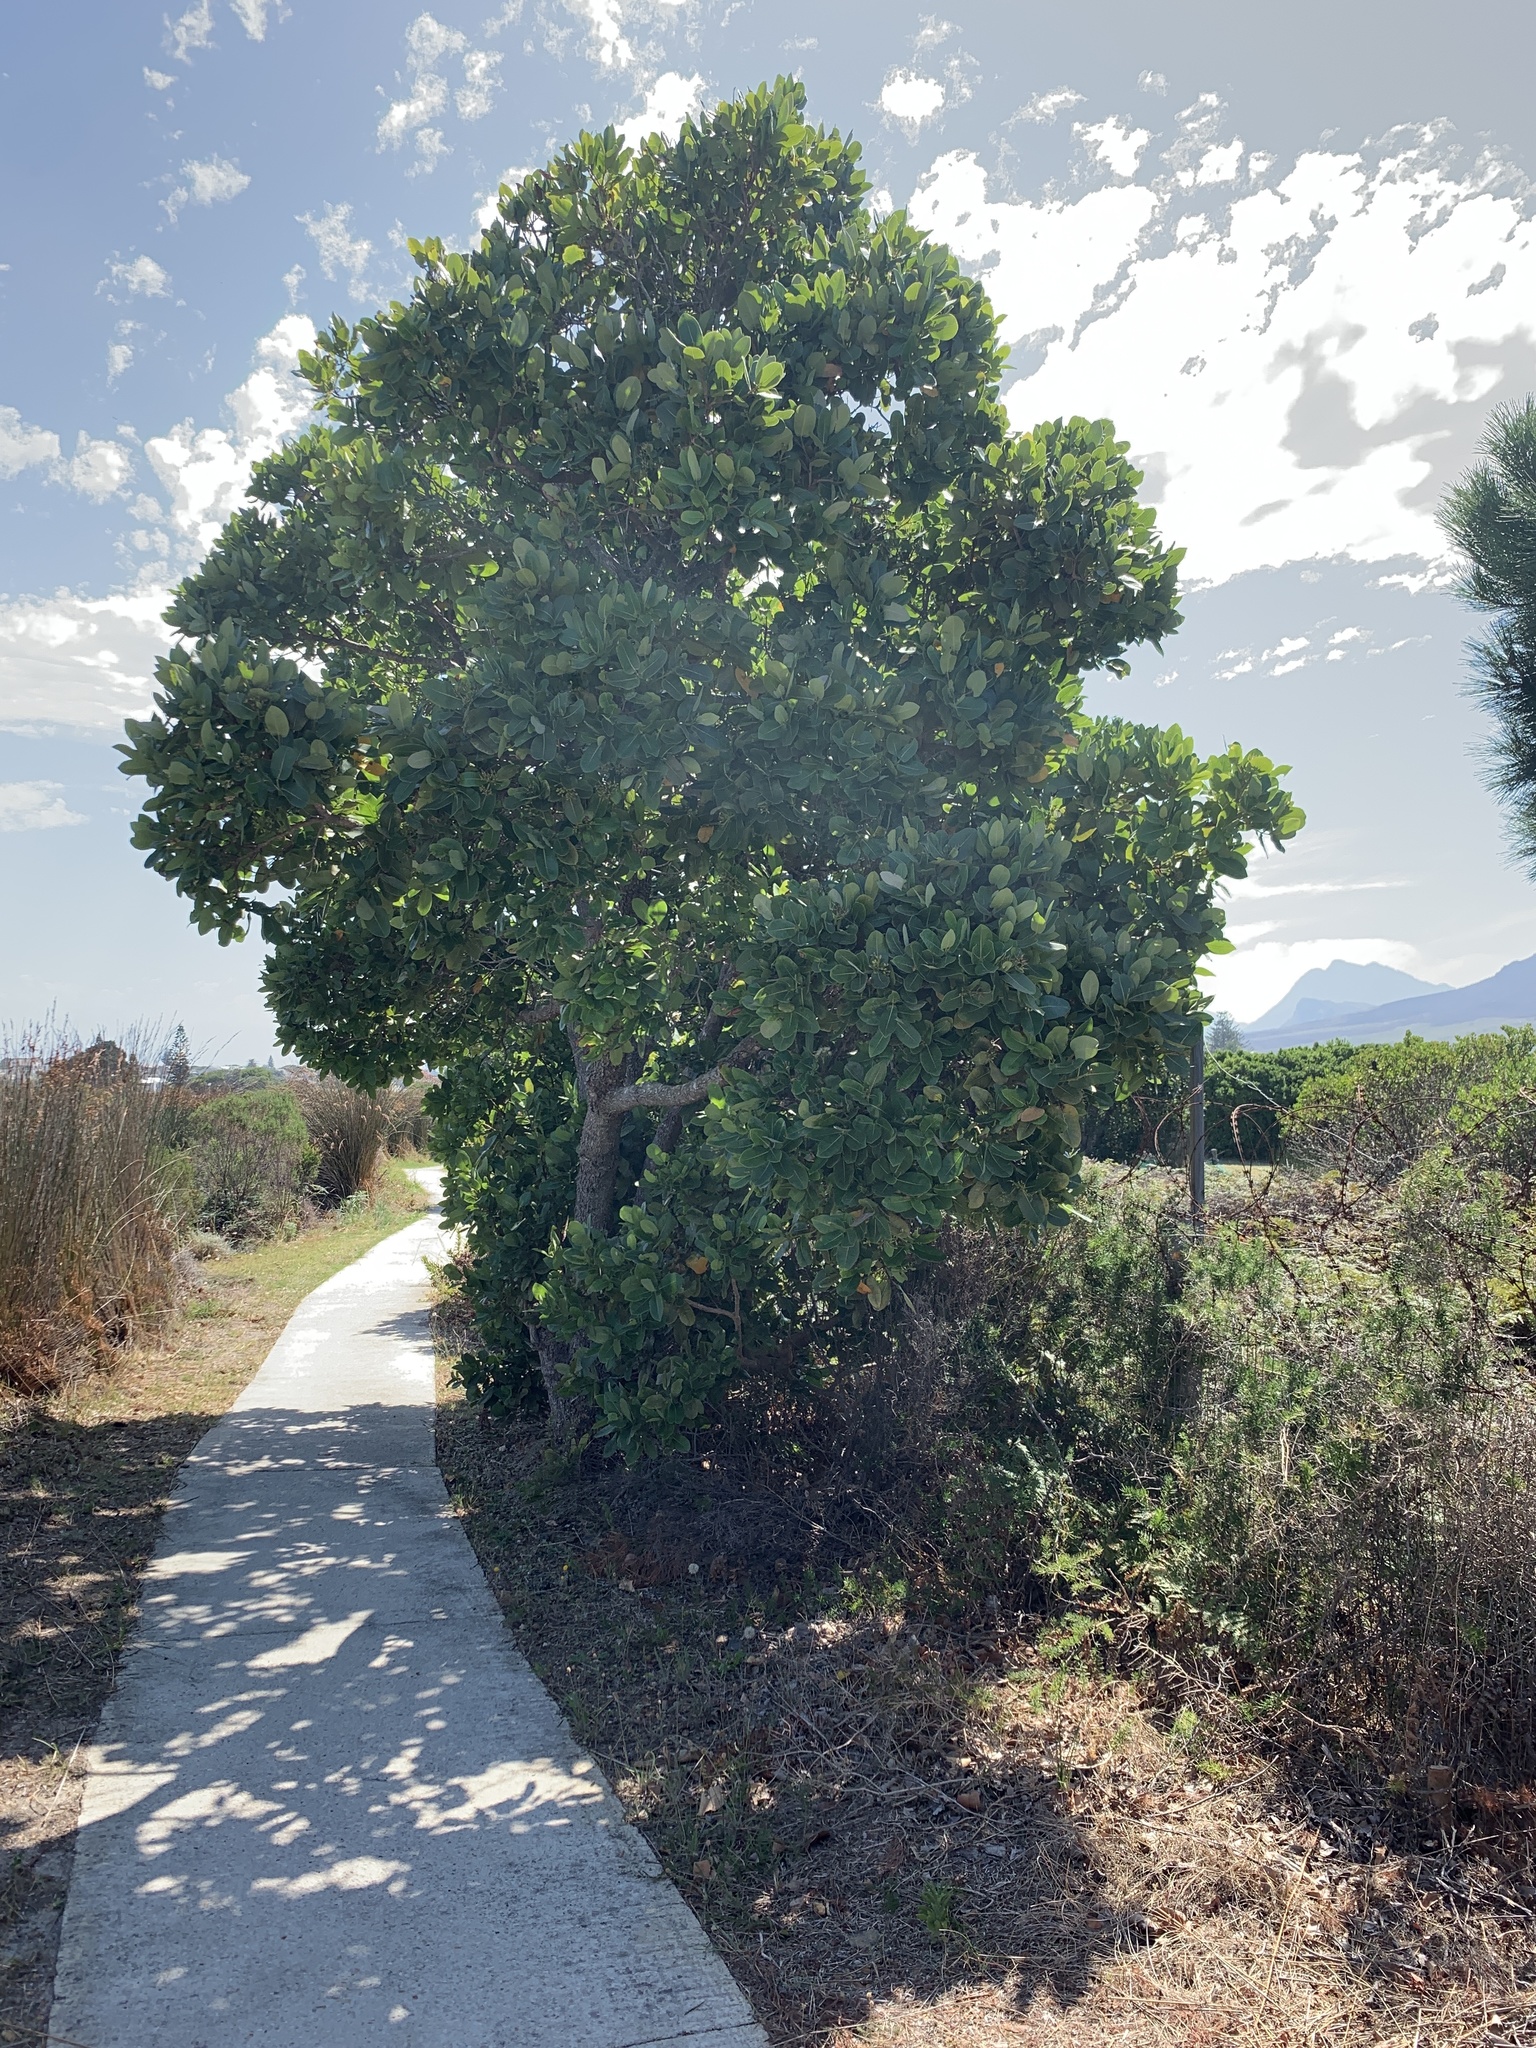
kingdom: Plantae
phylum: Tracheophyta
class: Magnoliopsida
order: Myrtales
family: Myrtaceae
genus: Syzygium
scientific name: Syzygium cordatum
